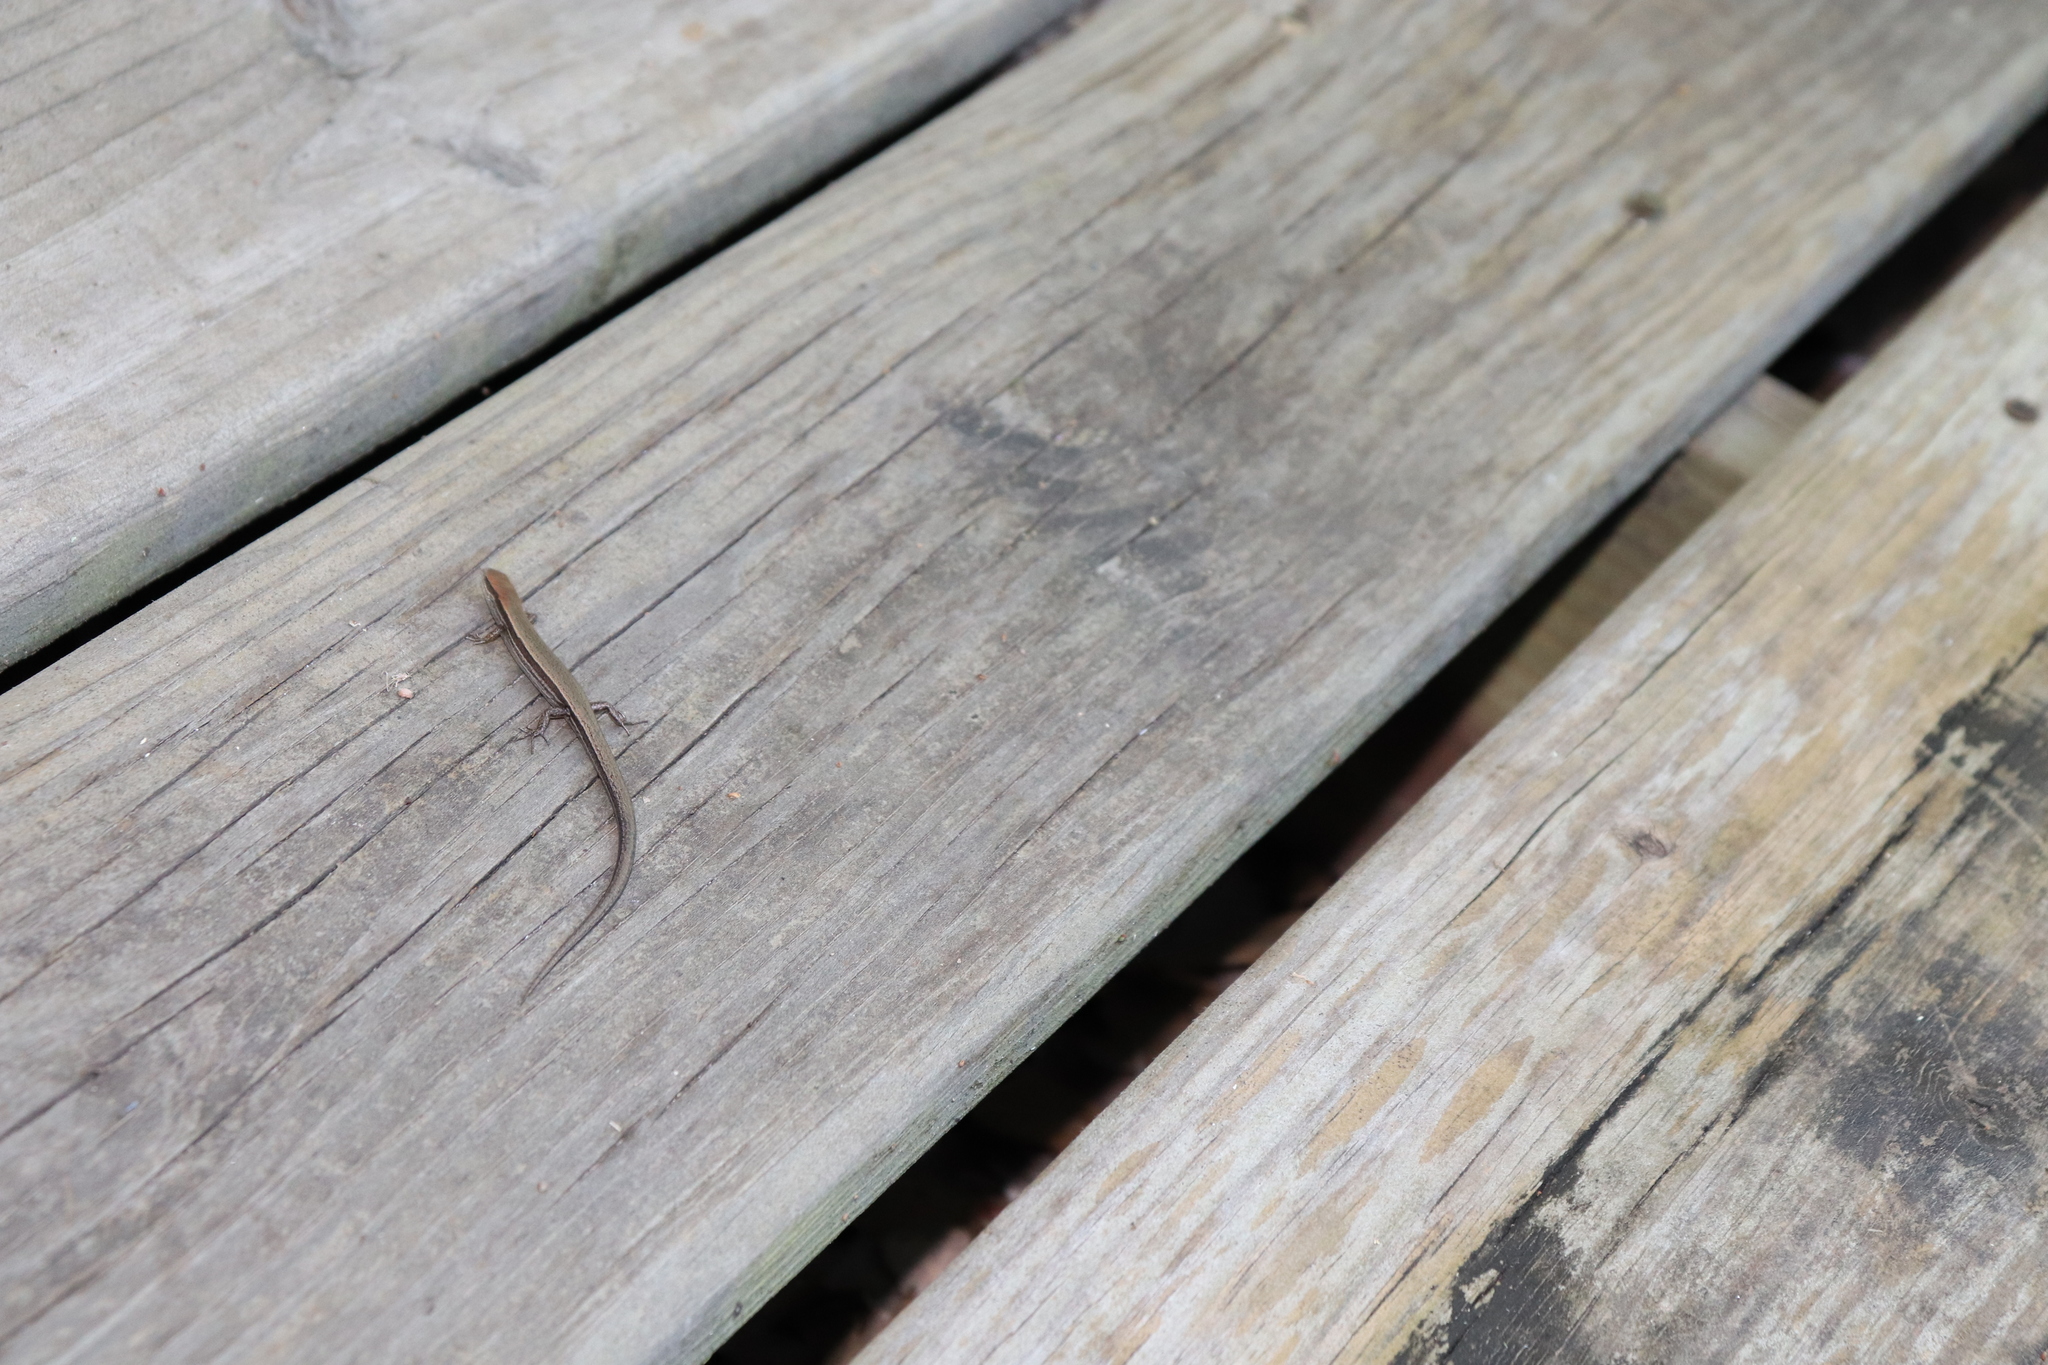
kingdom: Animalia
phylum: Chordata
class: Squamata
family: Scincidae
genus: Scincella
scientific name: Scincella lateralis
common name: Ground skink
